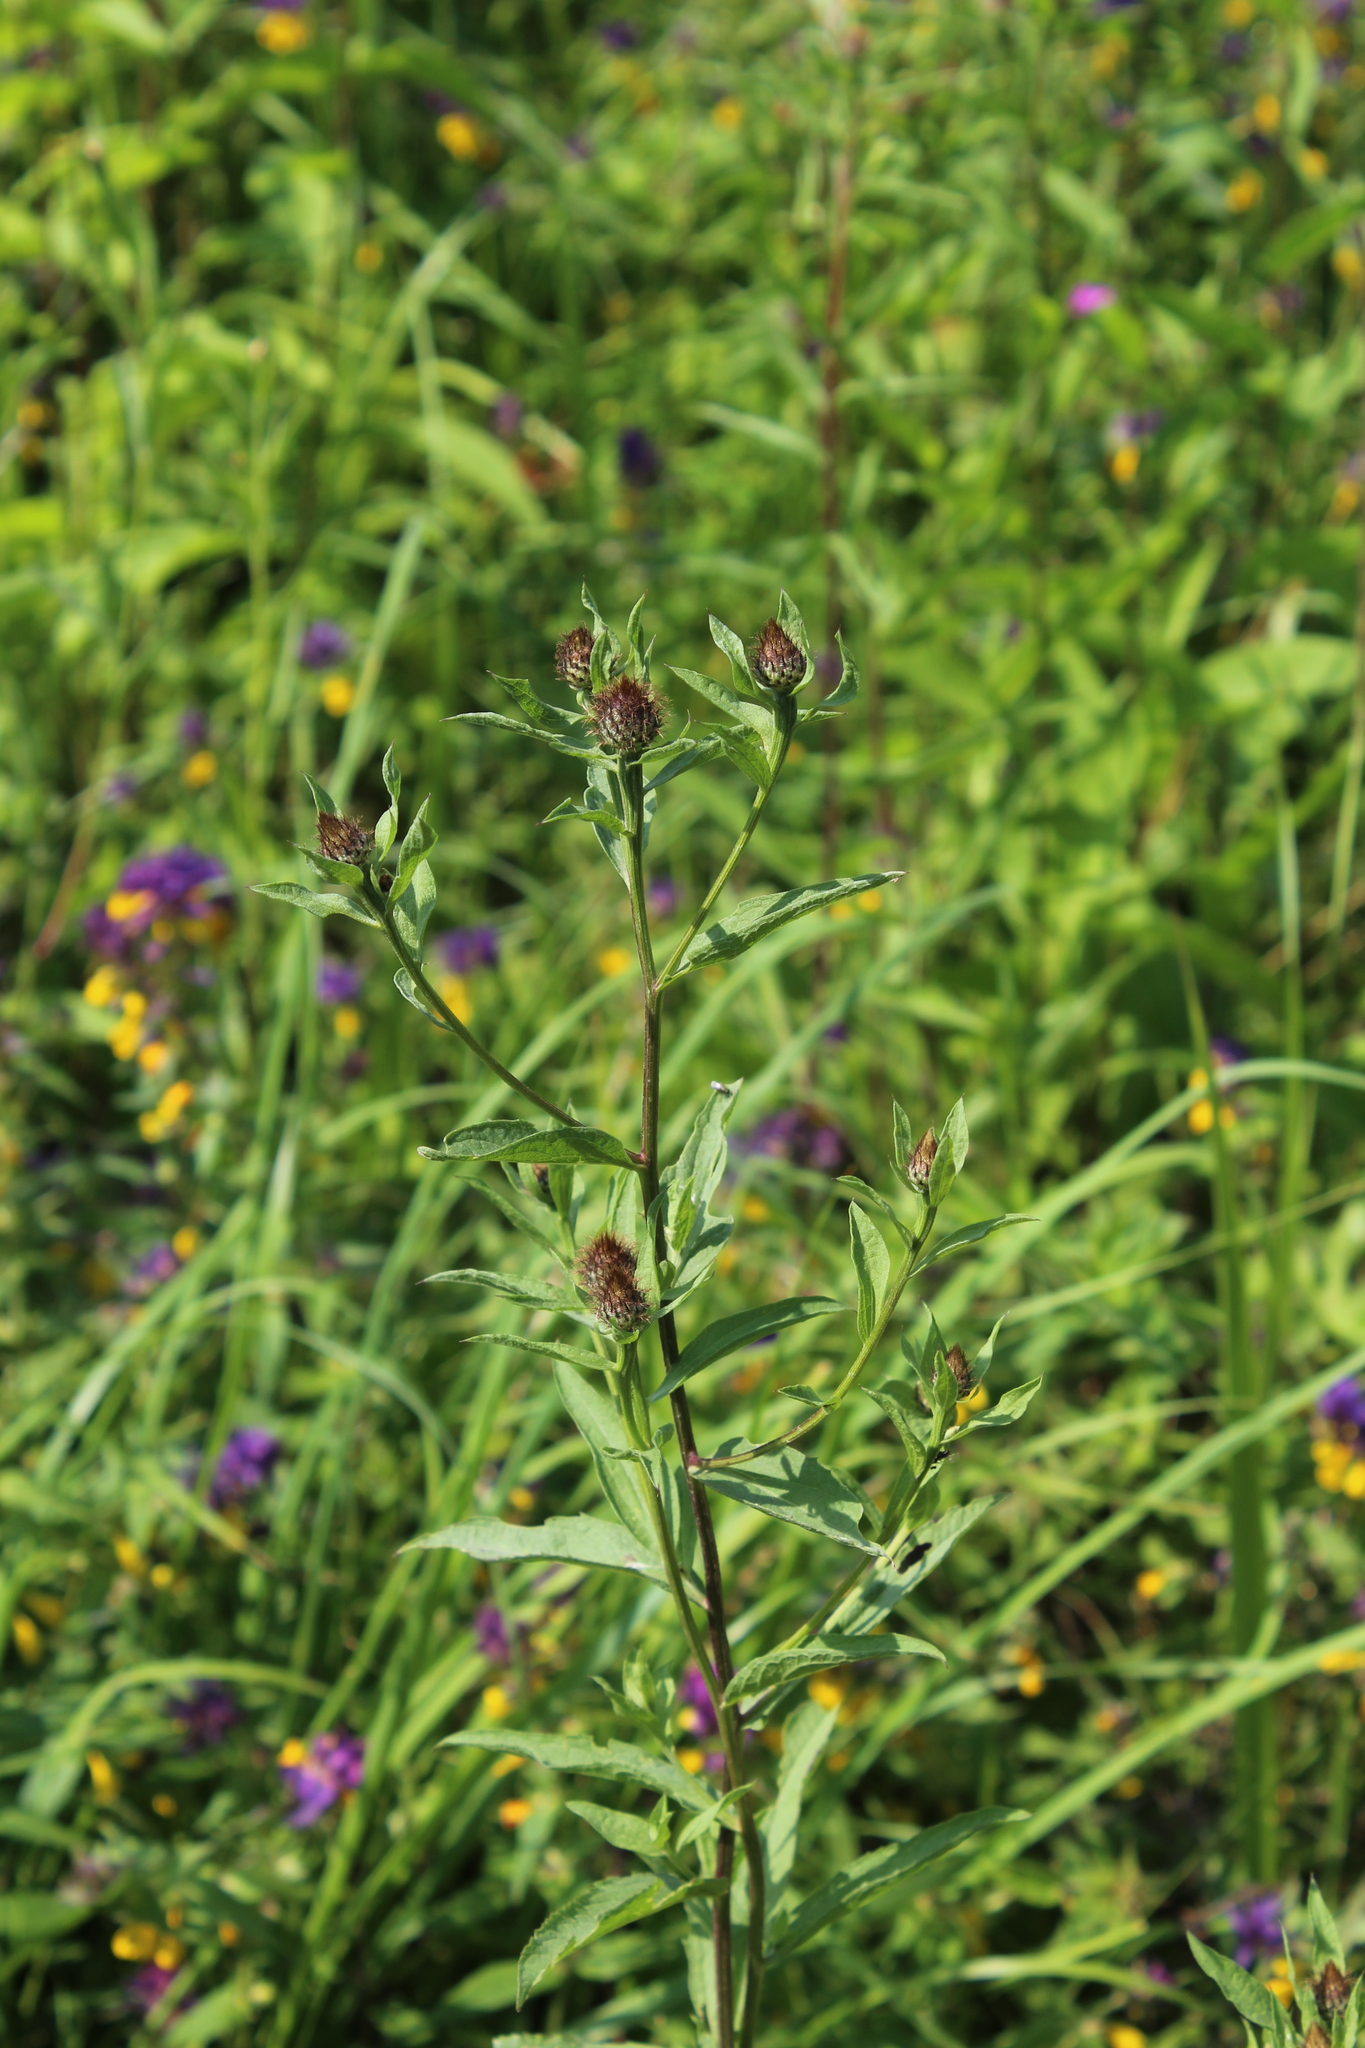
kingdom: Plantae
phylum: Tracheophyta
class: Magnoliopsida
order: Asterales
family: Asteraceae
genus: Centaurea
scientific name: Centaurea pseudophrygia
